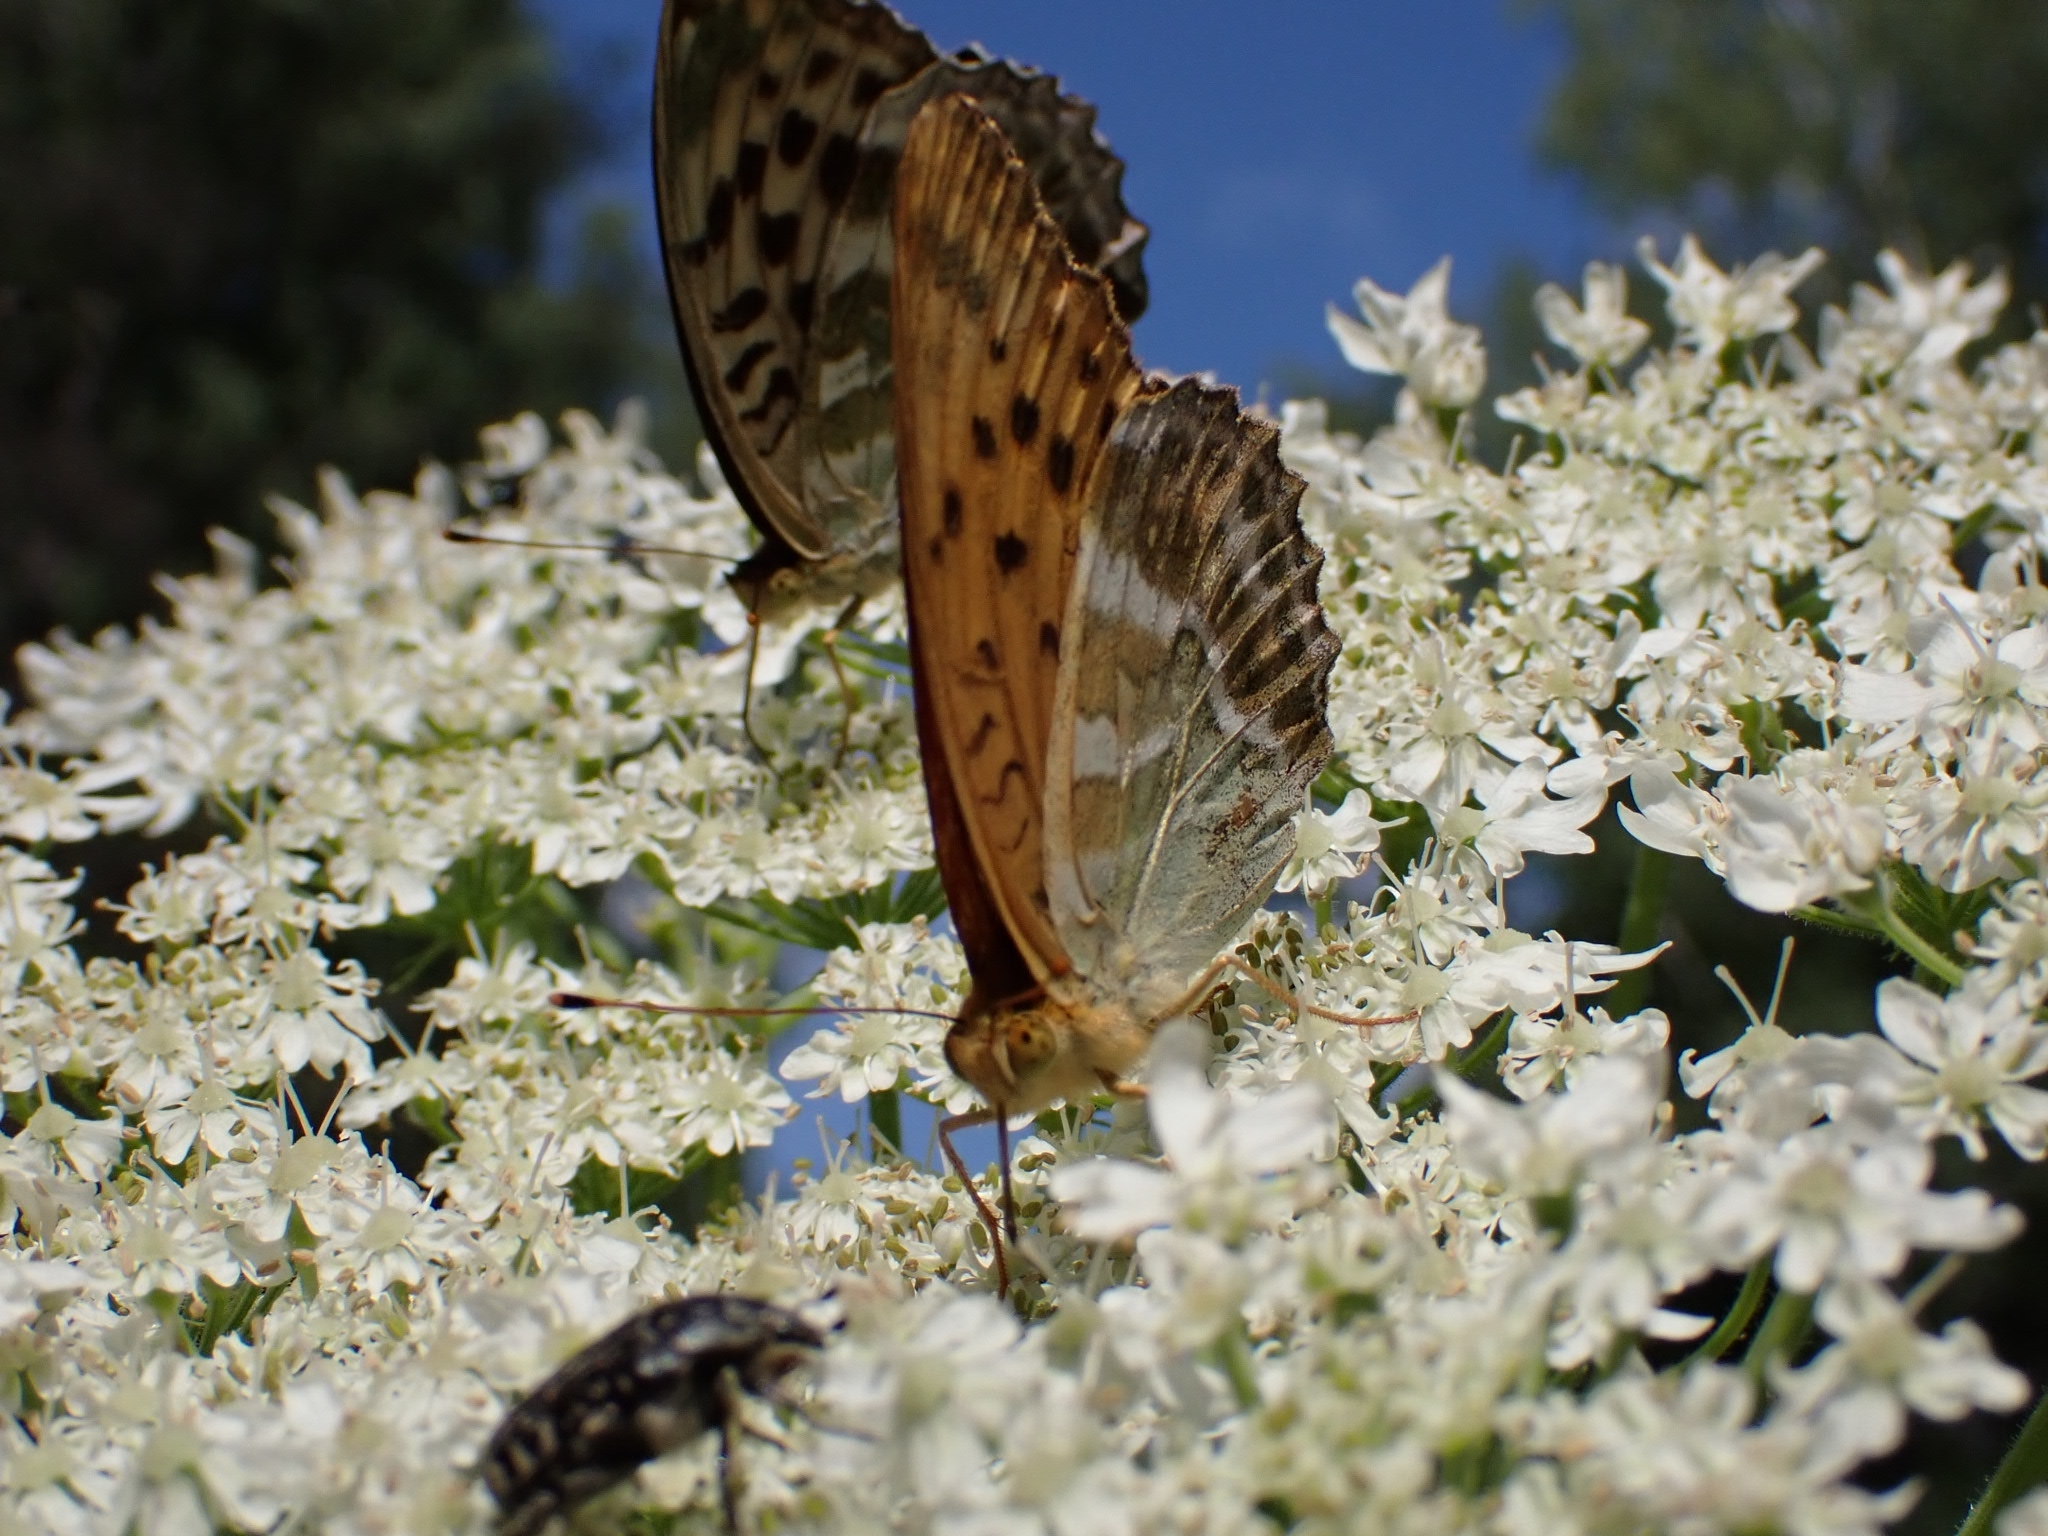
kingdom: Animalia
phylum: Arthropoda
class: Insecta
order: Lepidoptera
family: Nymphalidae
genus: Argynnis
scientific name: Argynnis paphia
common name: Silver-washed fritillary
